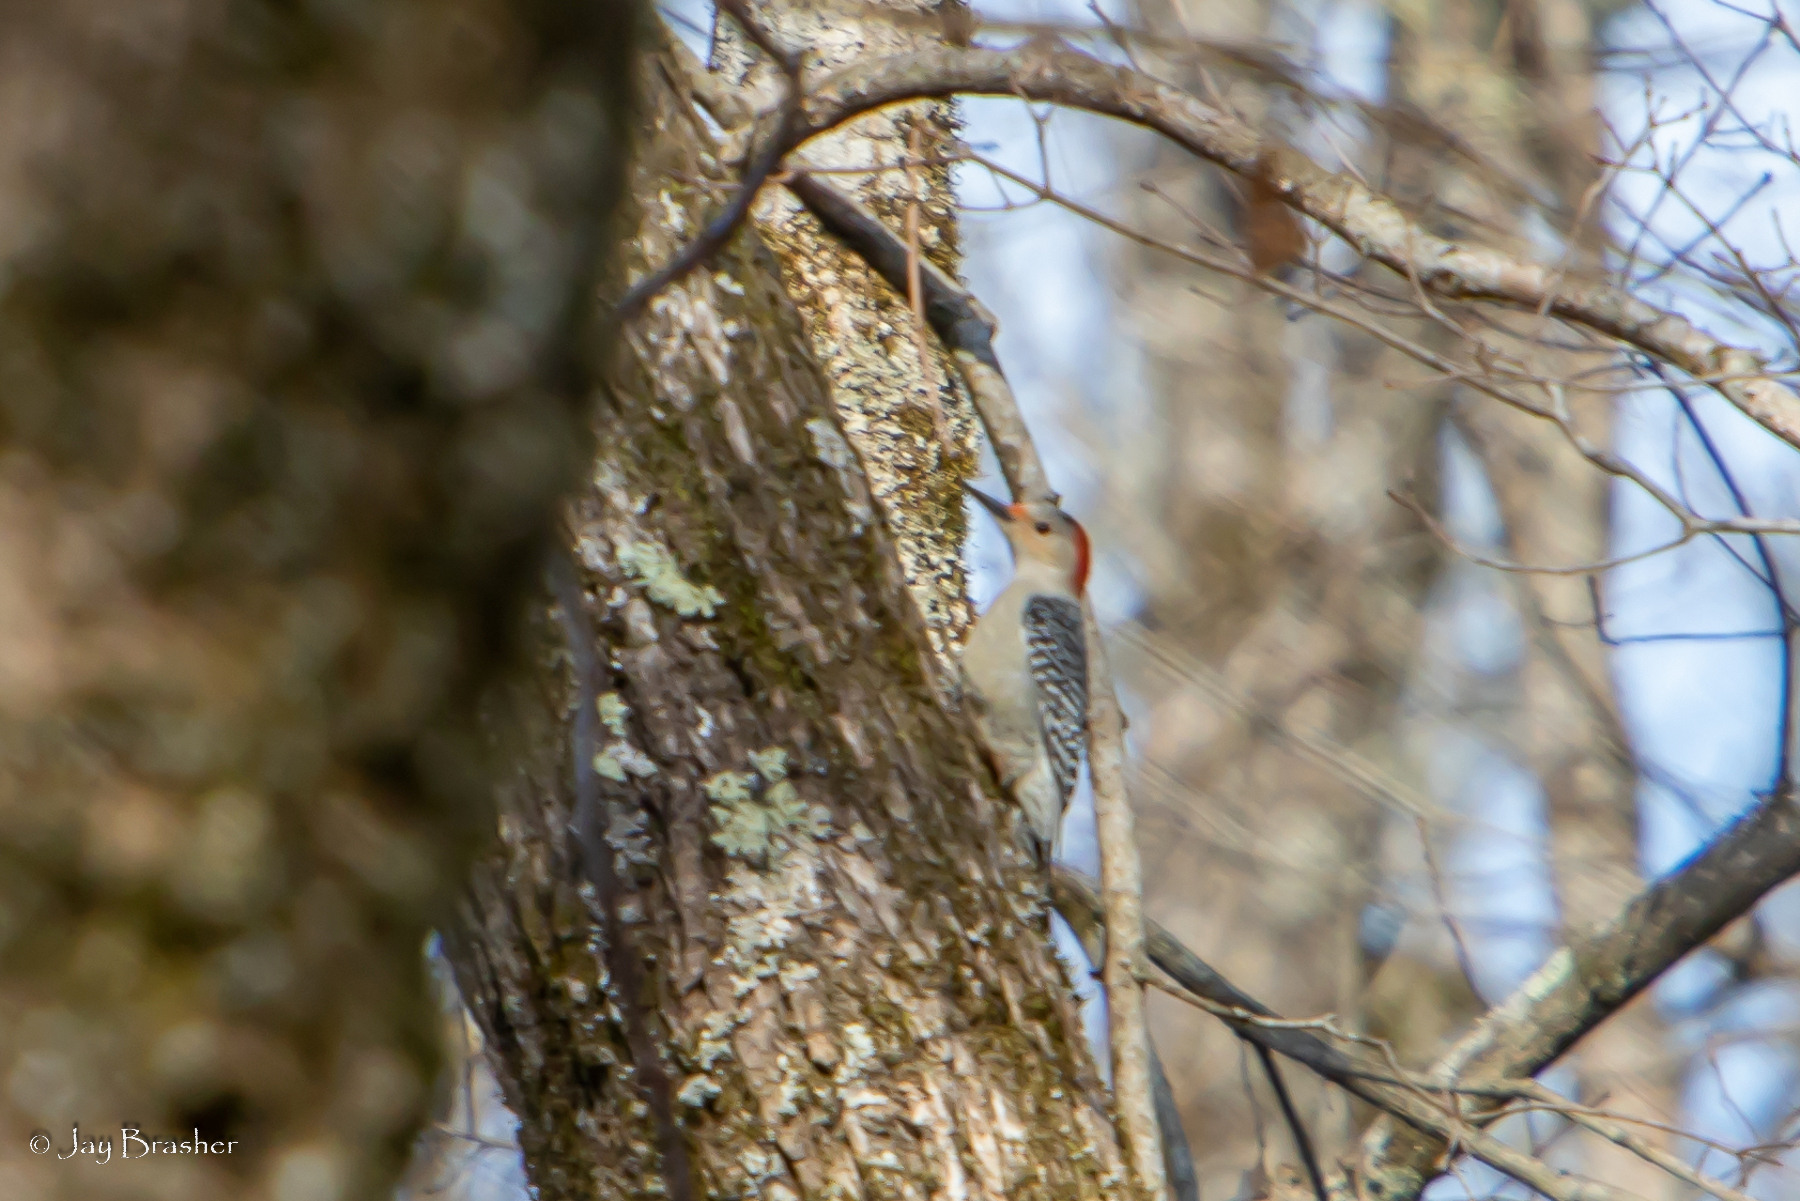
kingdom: Animalia
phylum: Chordata
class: Aves
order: Piciformes
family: Picidae
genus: Melanerpes
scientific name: Melanerpes carolinus
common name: Red-bellied woodpecker
